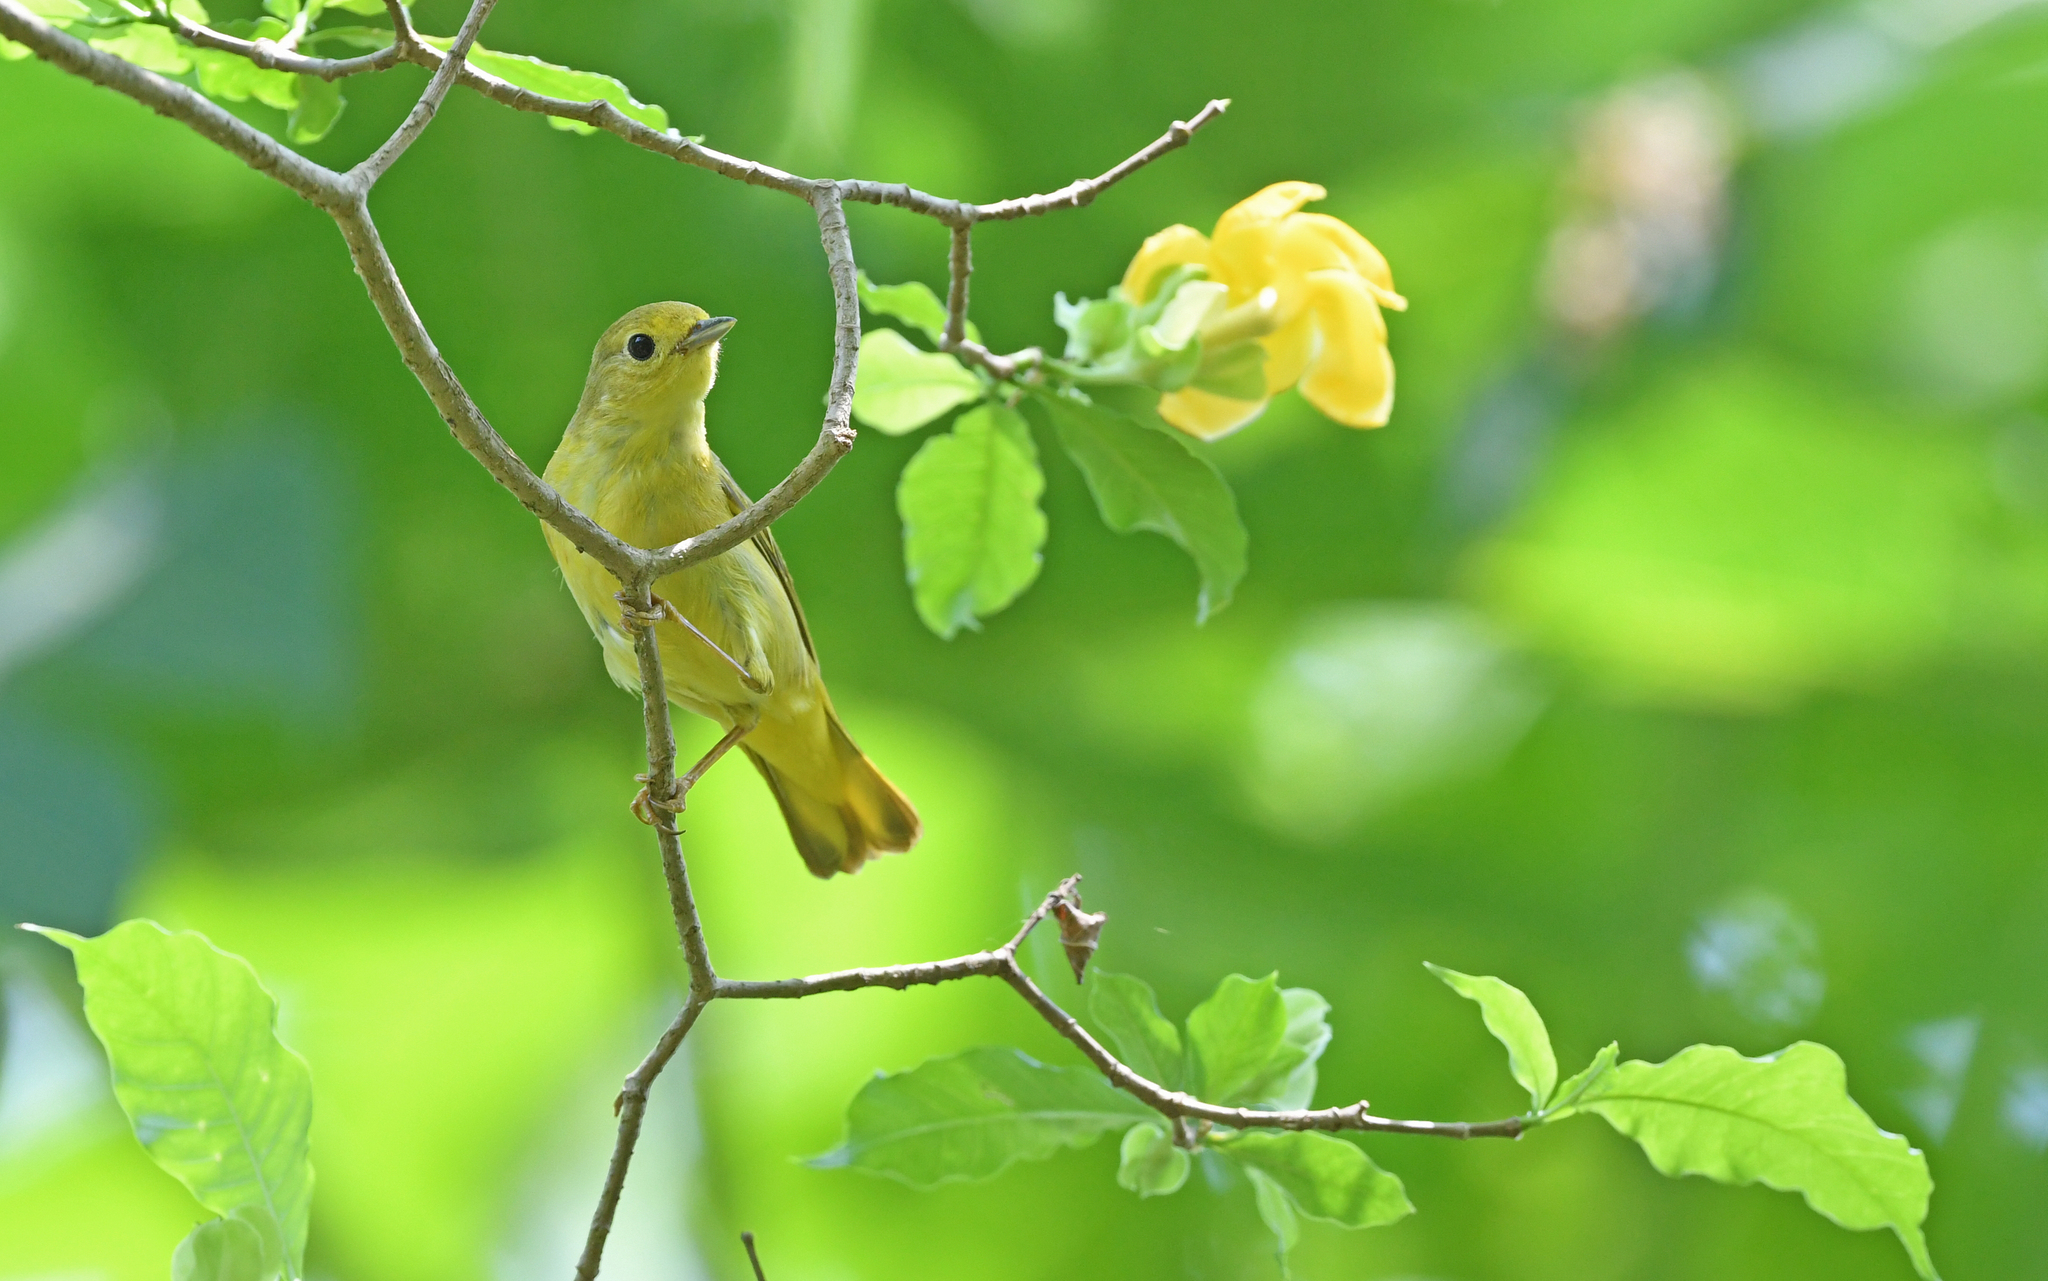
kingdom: Animalia
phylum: Chordata
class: Aves
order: Passeriformes
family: Parulidae
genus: Setophaga
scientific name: Setophaga petechia
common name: Yellow warbler
